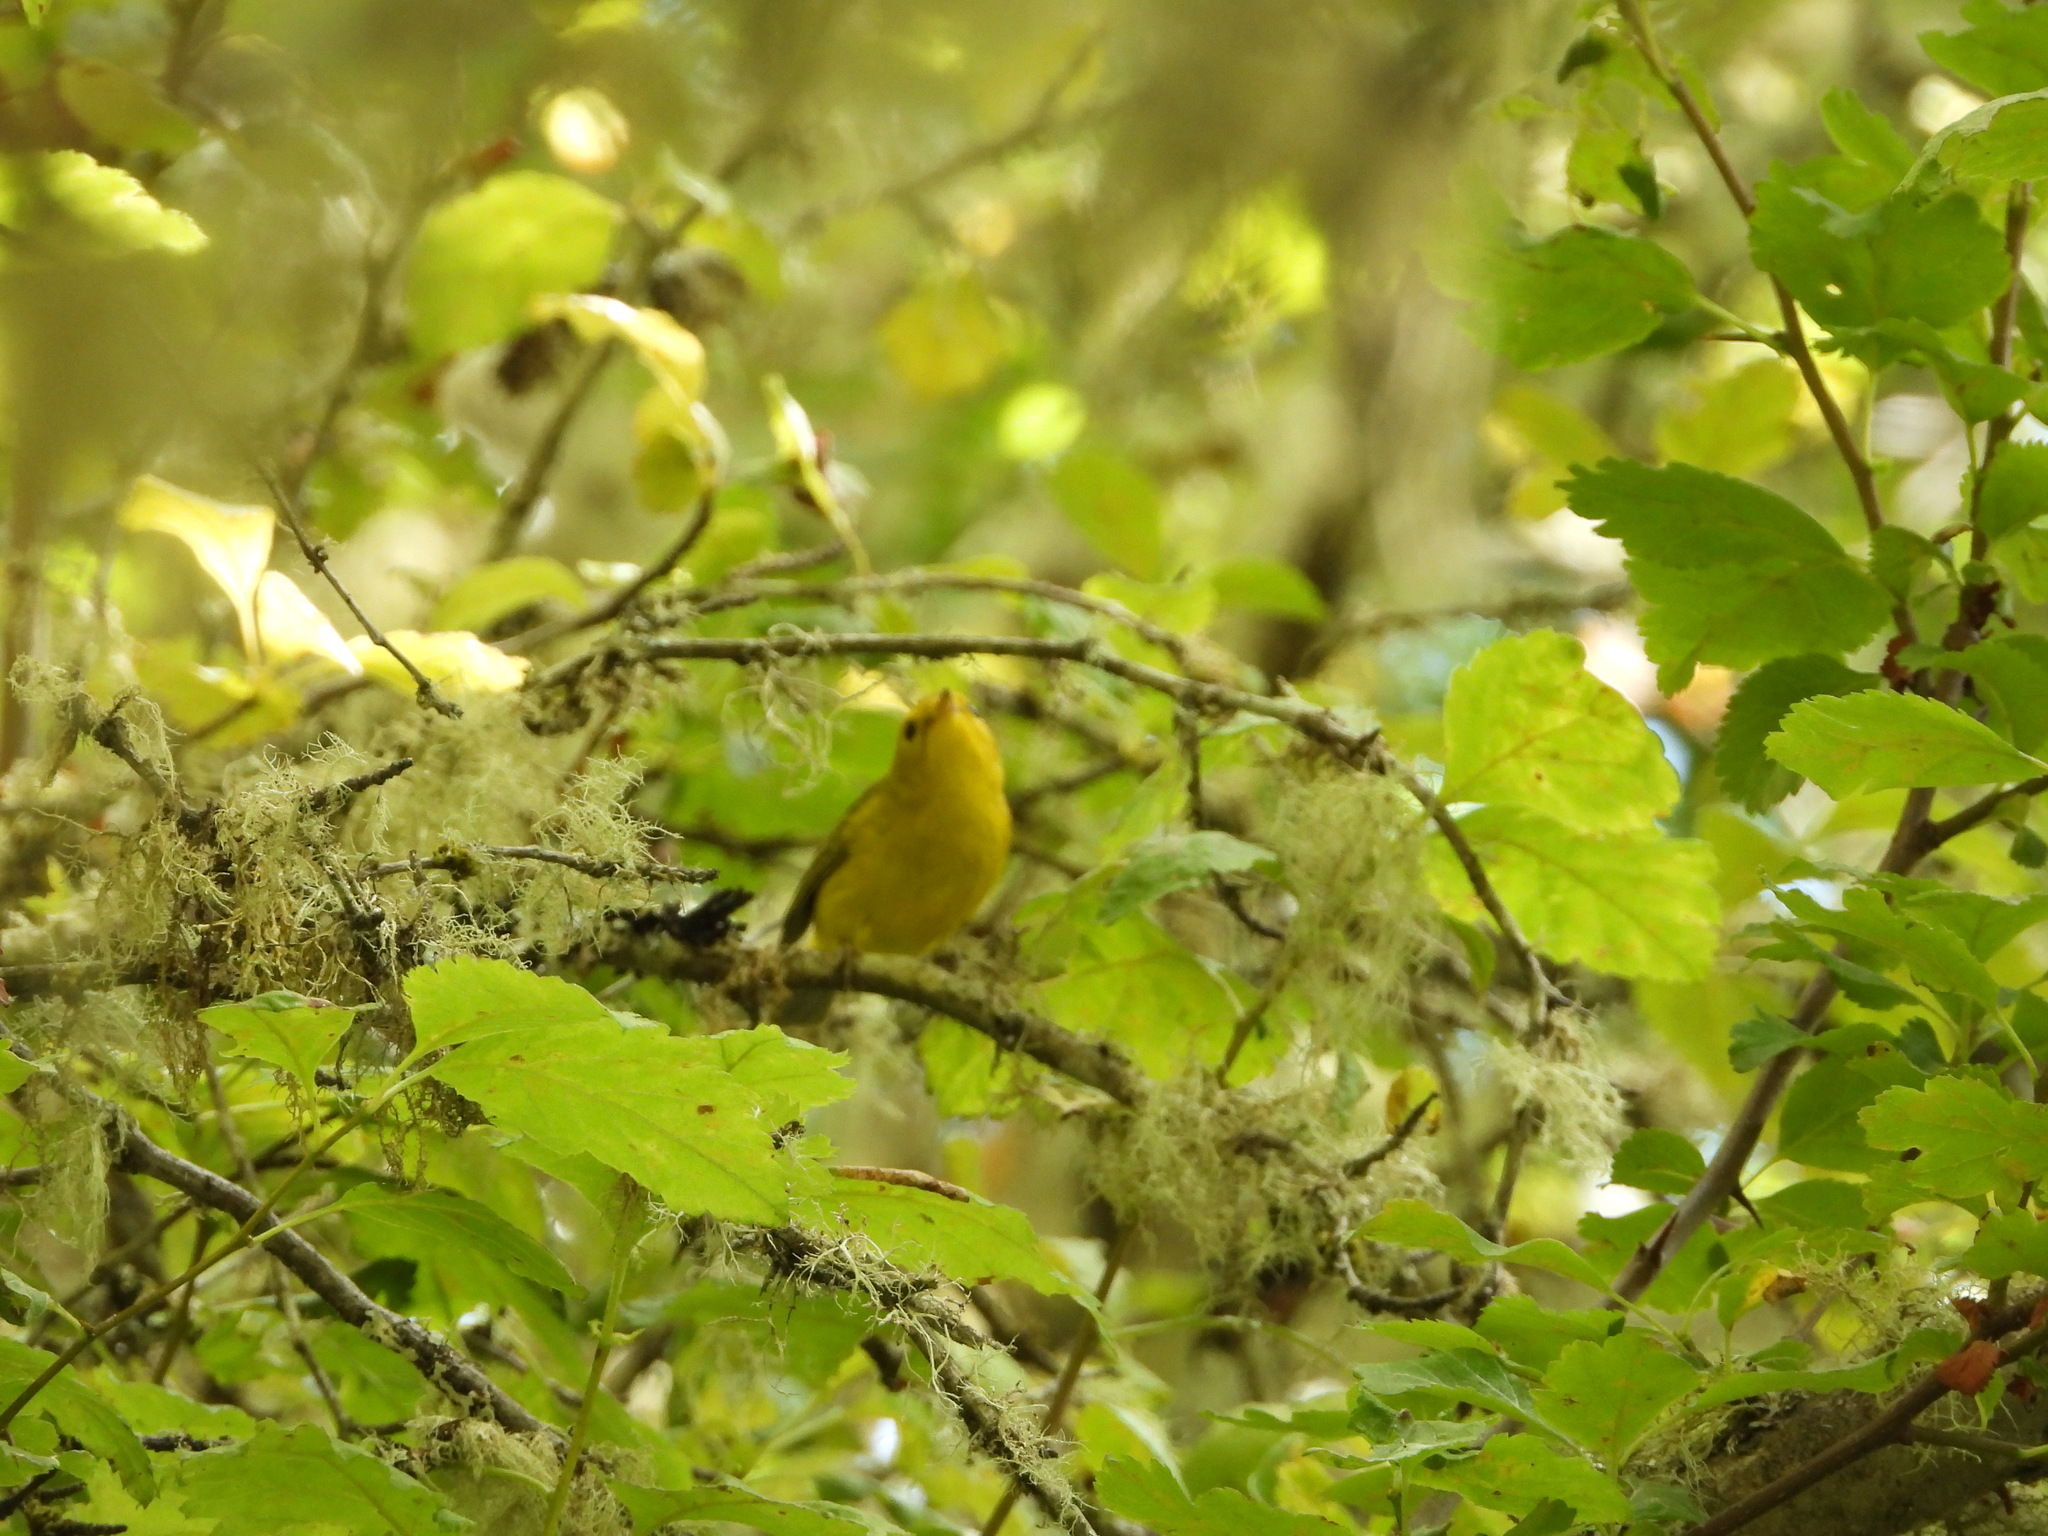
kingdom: Animalia
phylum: Chordata
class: Aves
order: Passeriformes
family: Parulidae
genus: Cardellina
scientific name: Cardellina pusilla
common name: Wilson's warbler
